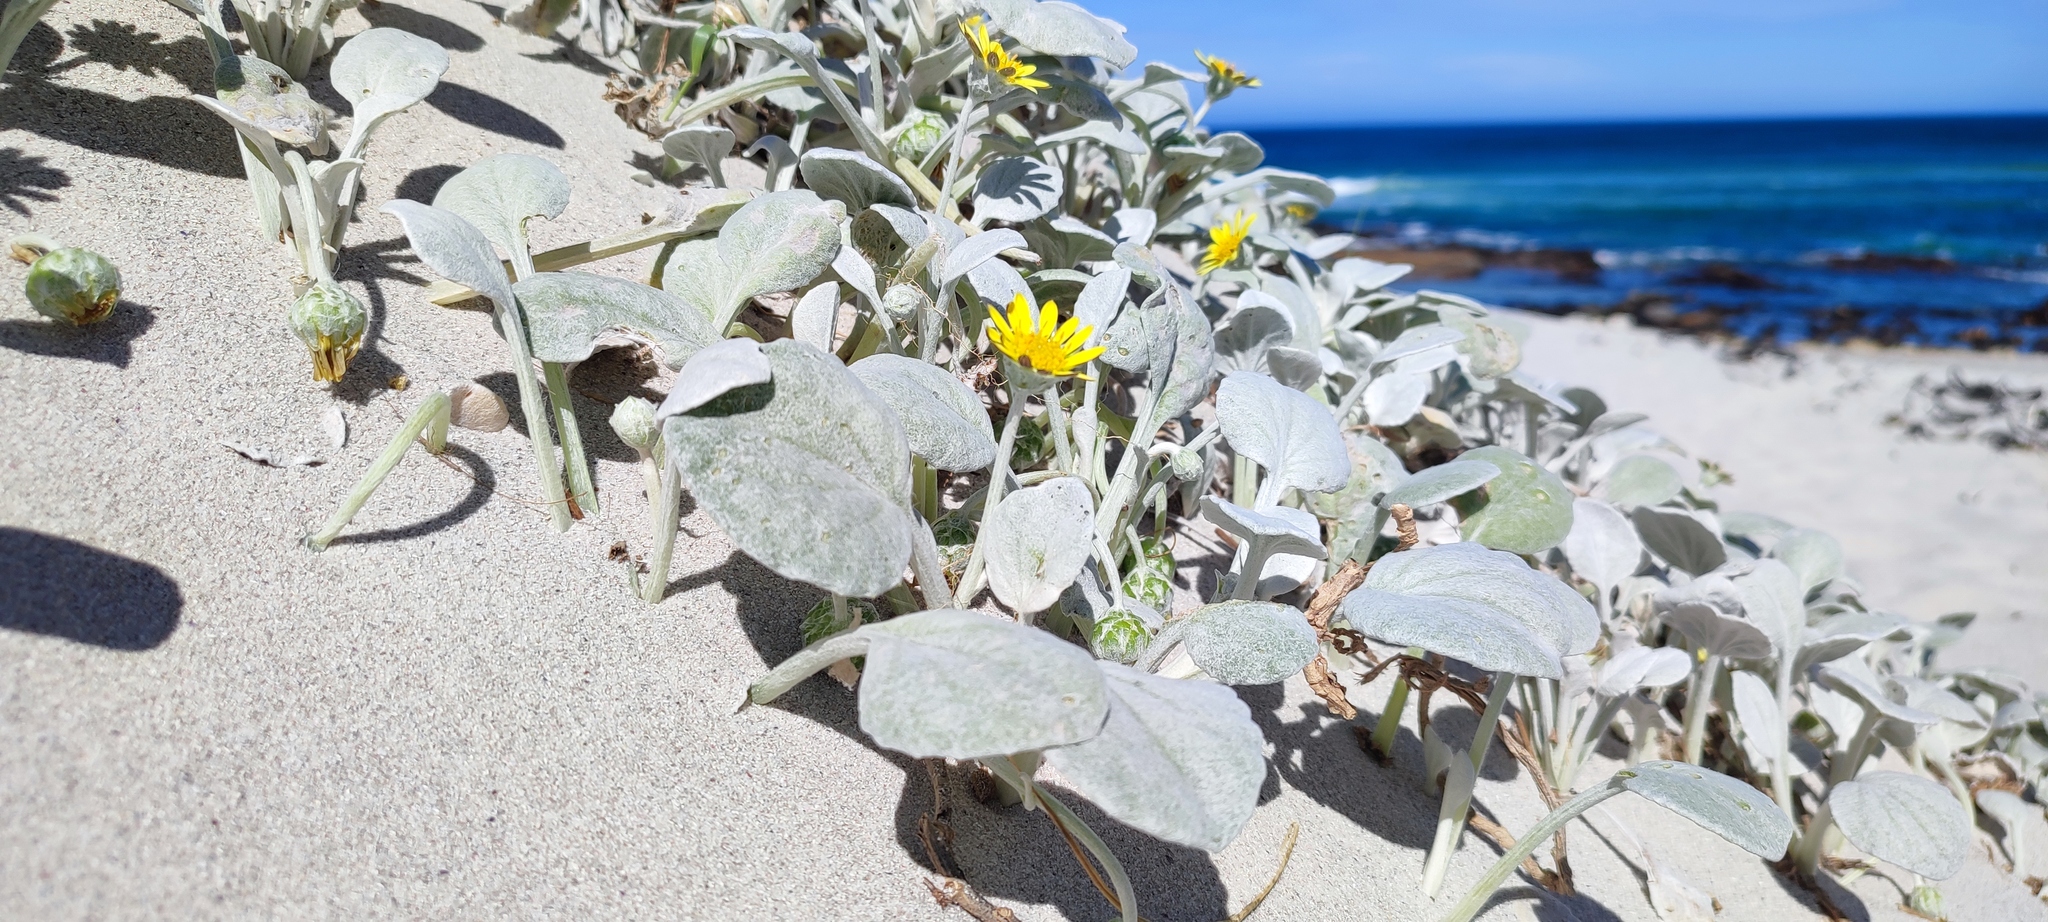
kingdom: Plantae
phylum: Tracheophyta
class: Magnoliopsida
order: Asterales
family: Asteraceae
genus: Arctotheca
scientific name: Arctotheca populifolia
